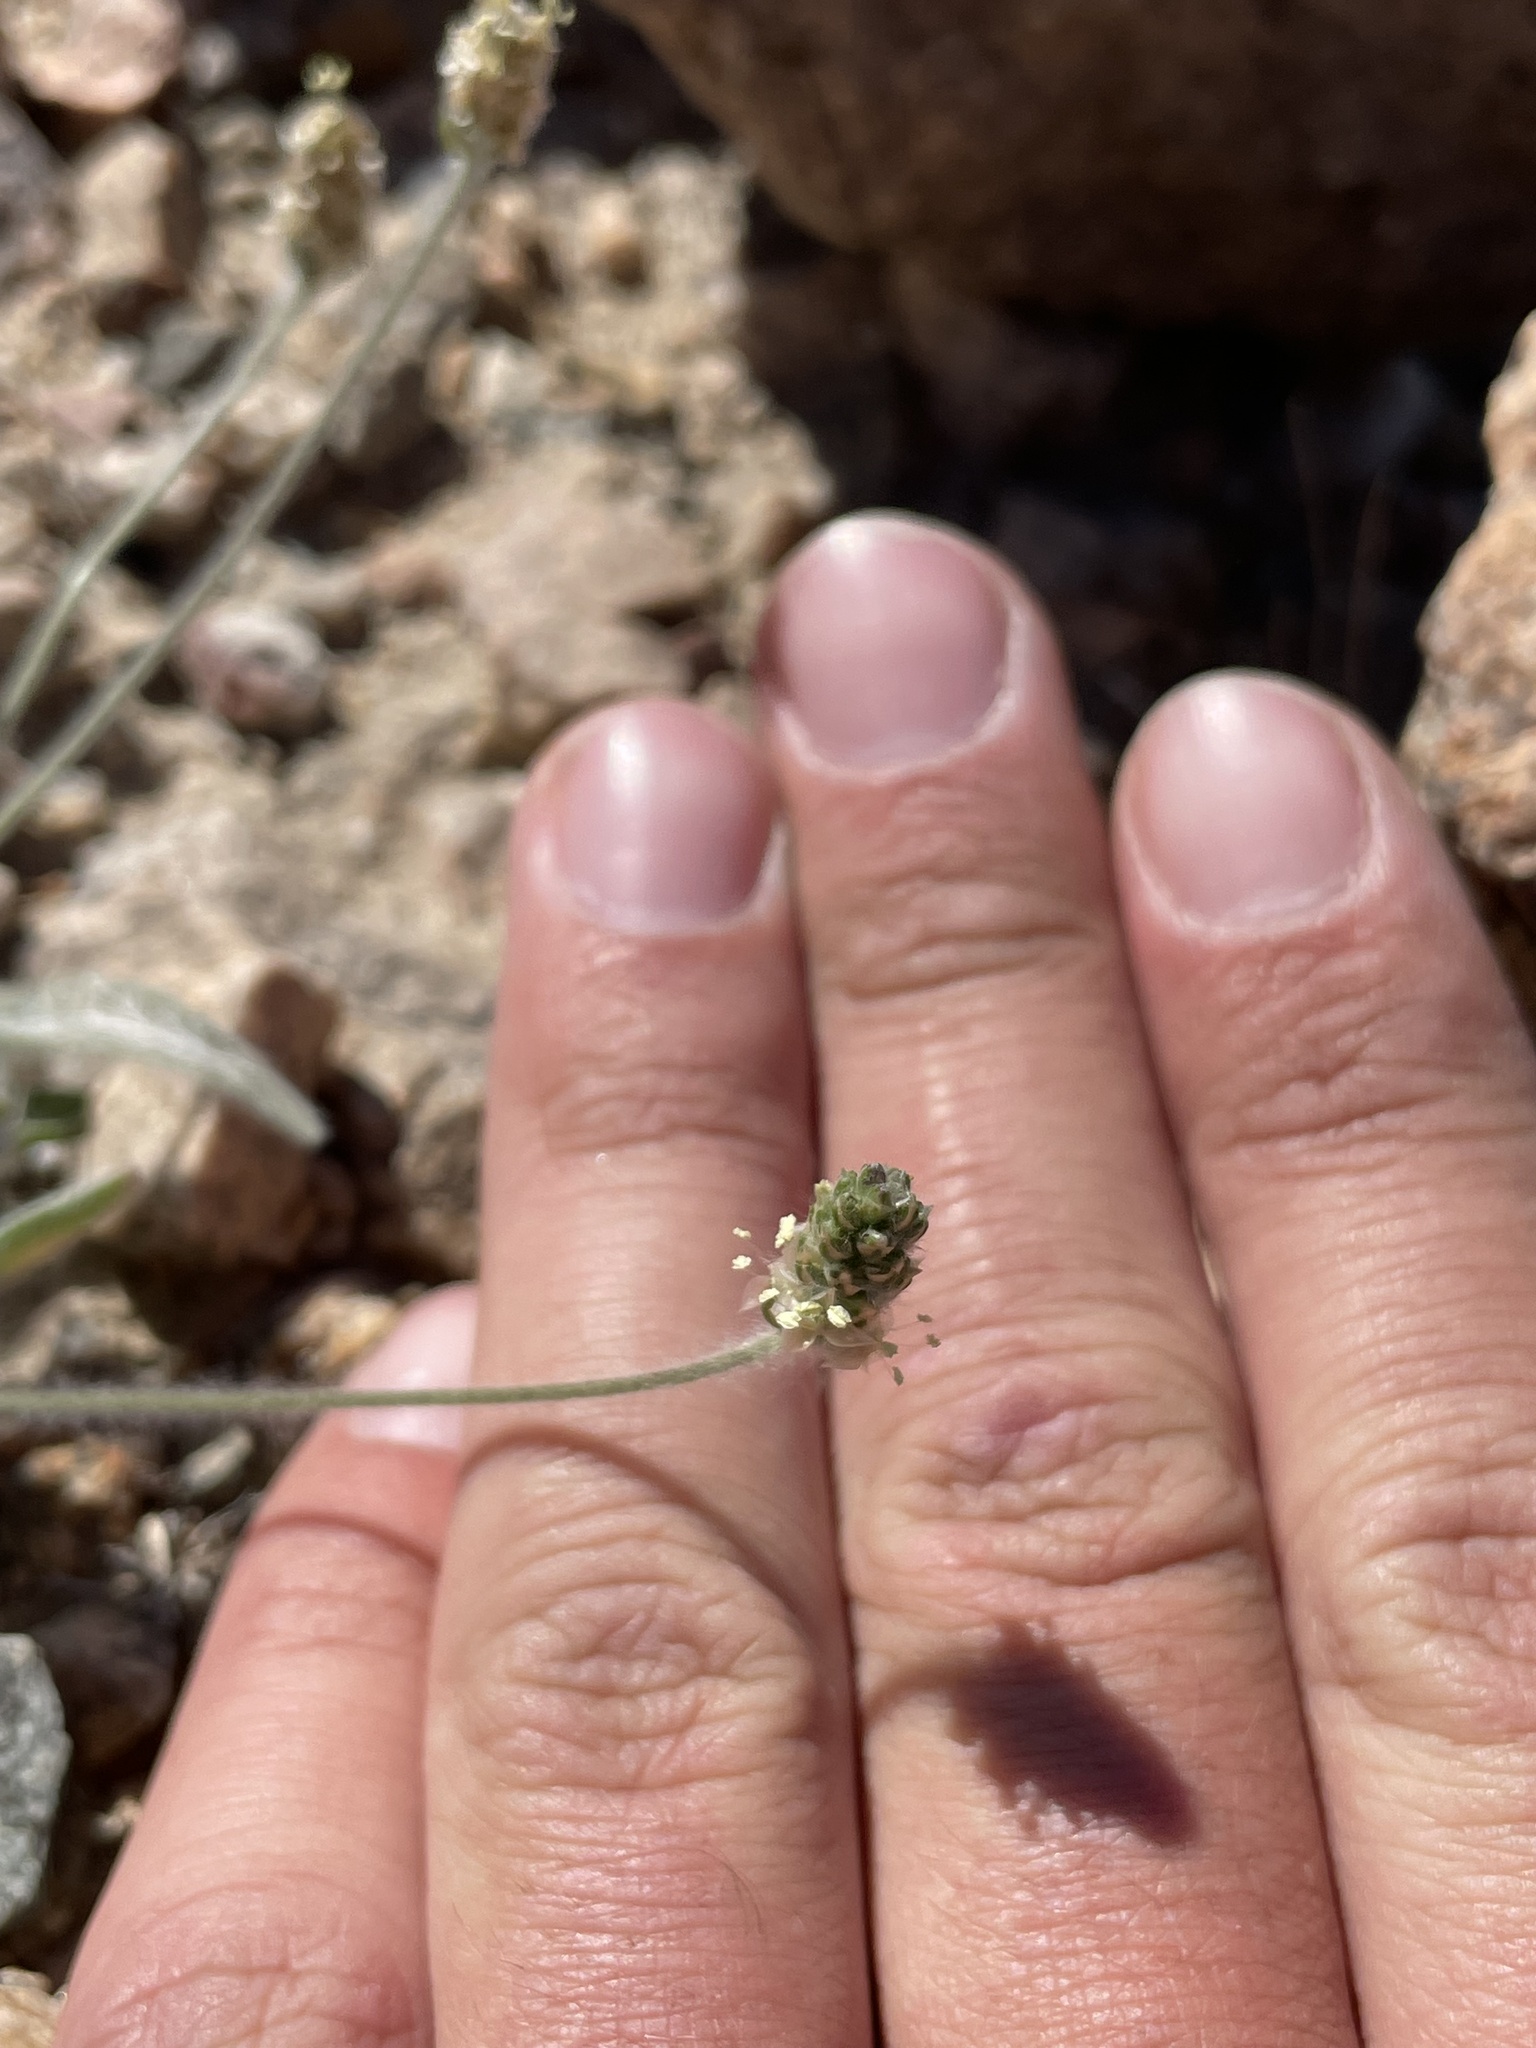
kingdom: Plantae
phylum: Tracheophyta
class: Magnoliopsida
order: Lamiales
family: Plantaginaceae
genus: Plantago
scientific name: Plantago ovata
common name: Blond plantain
